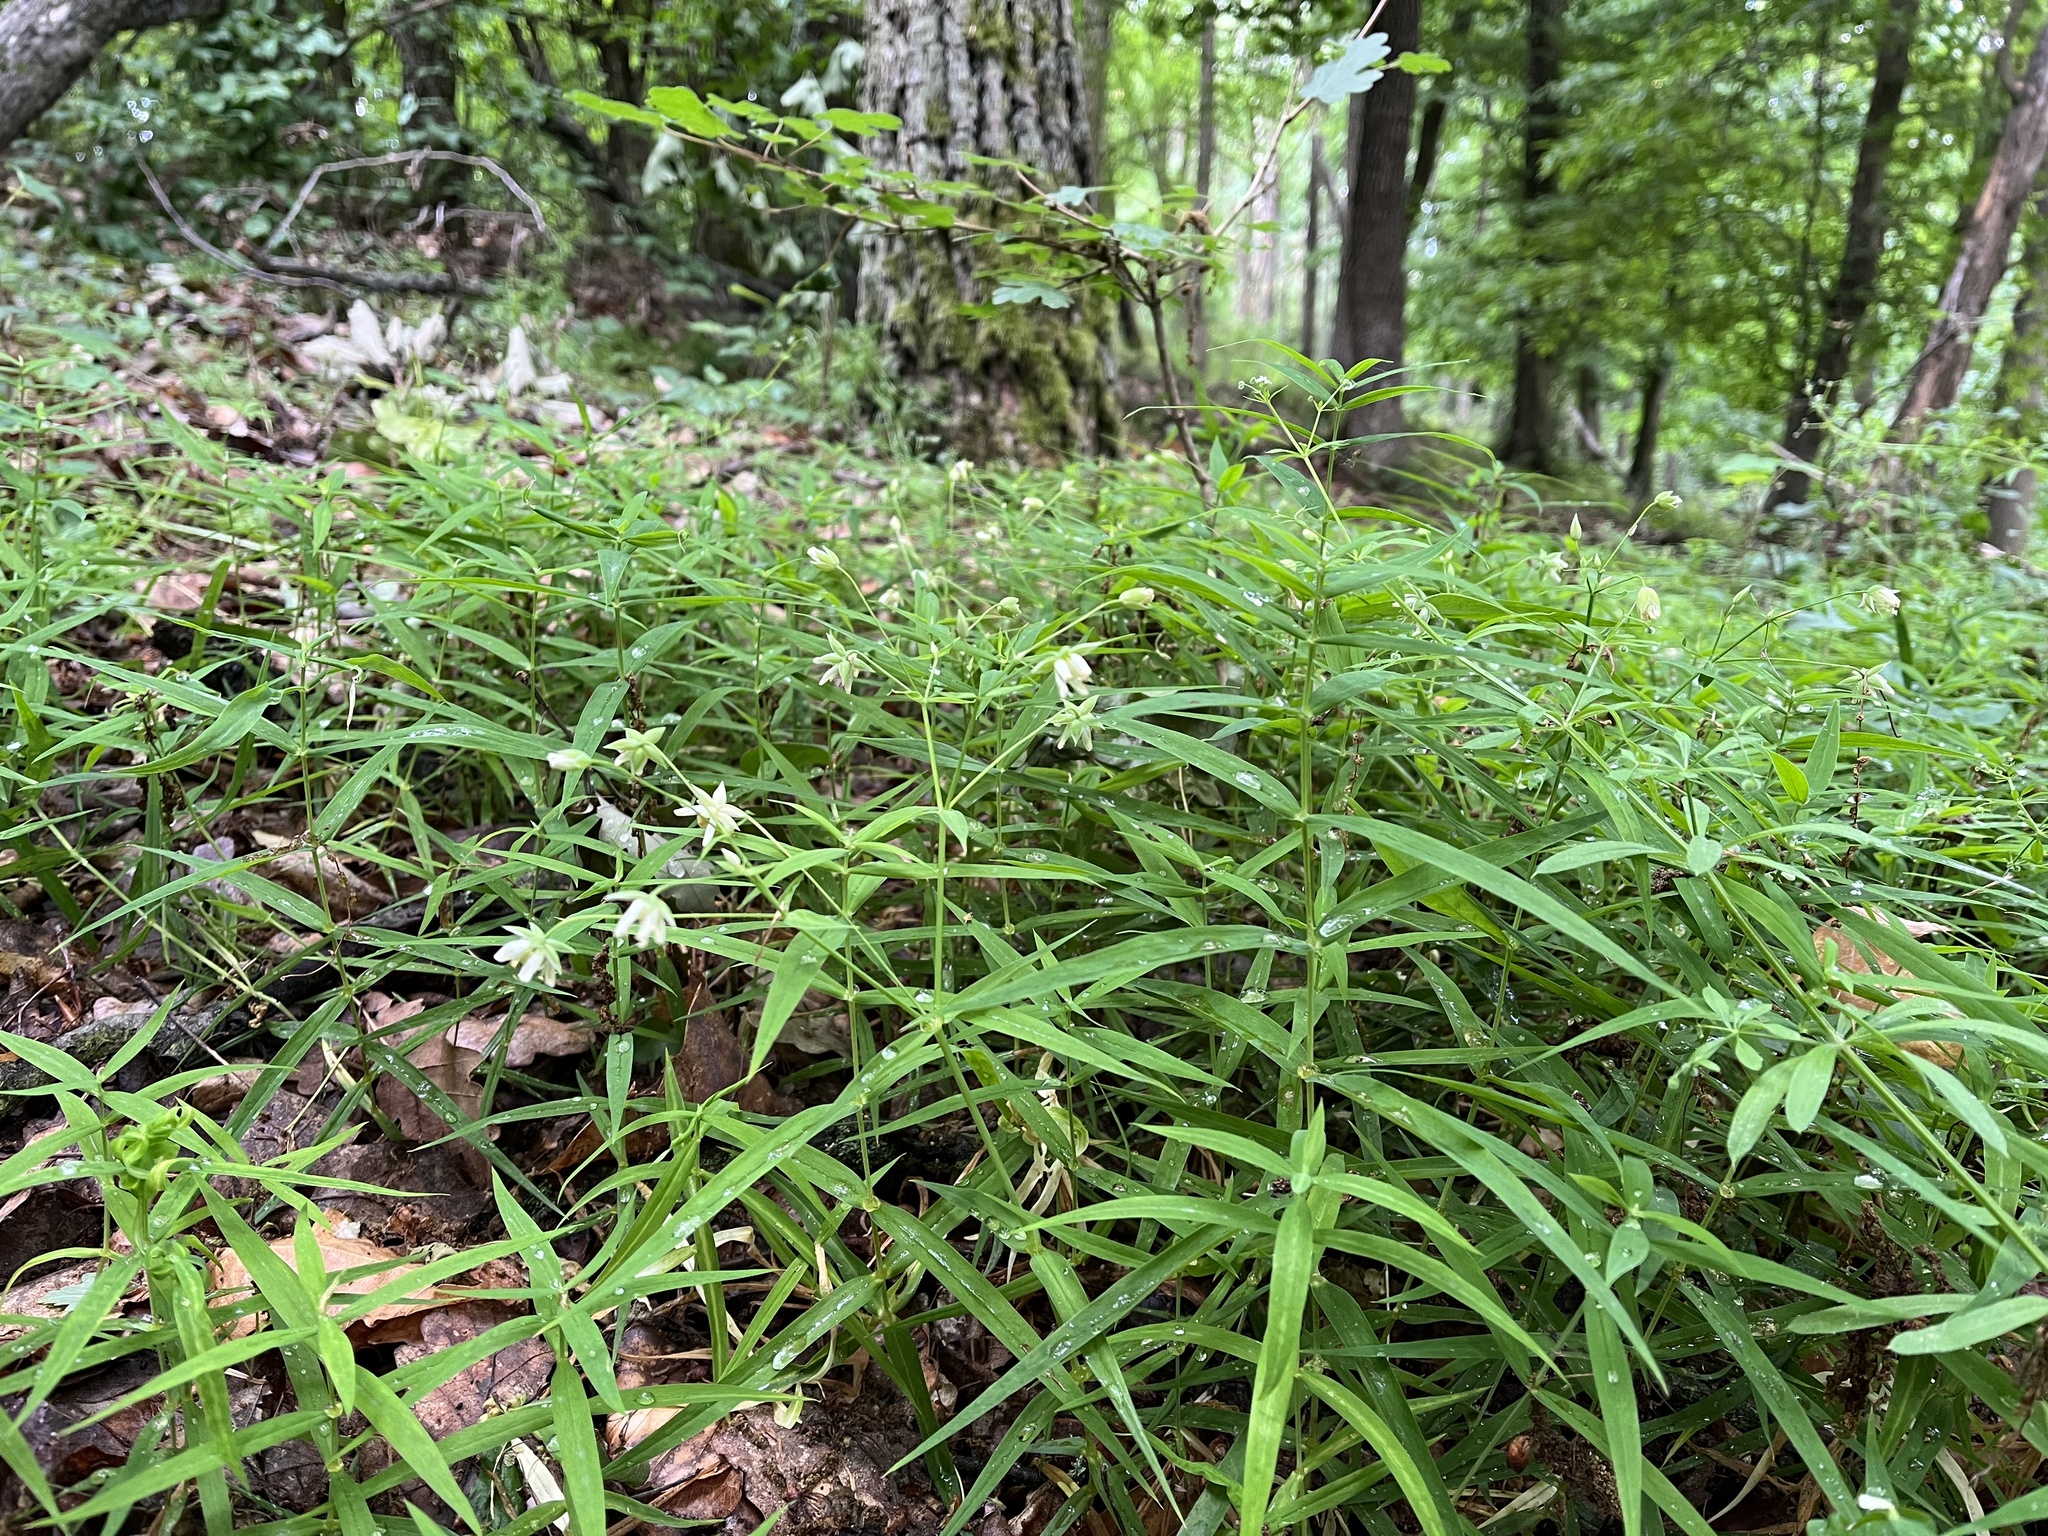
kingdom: Plantae
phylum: Tracheophyta
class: Magnoliopsida
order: Caryophyllales
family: Caryophyllaceae
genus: Rabelera
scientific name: Rabelera holostea
